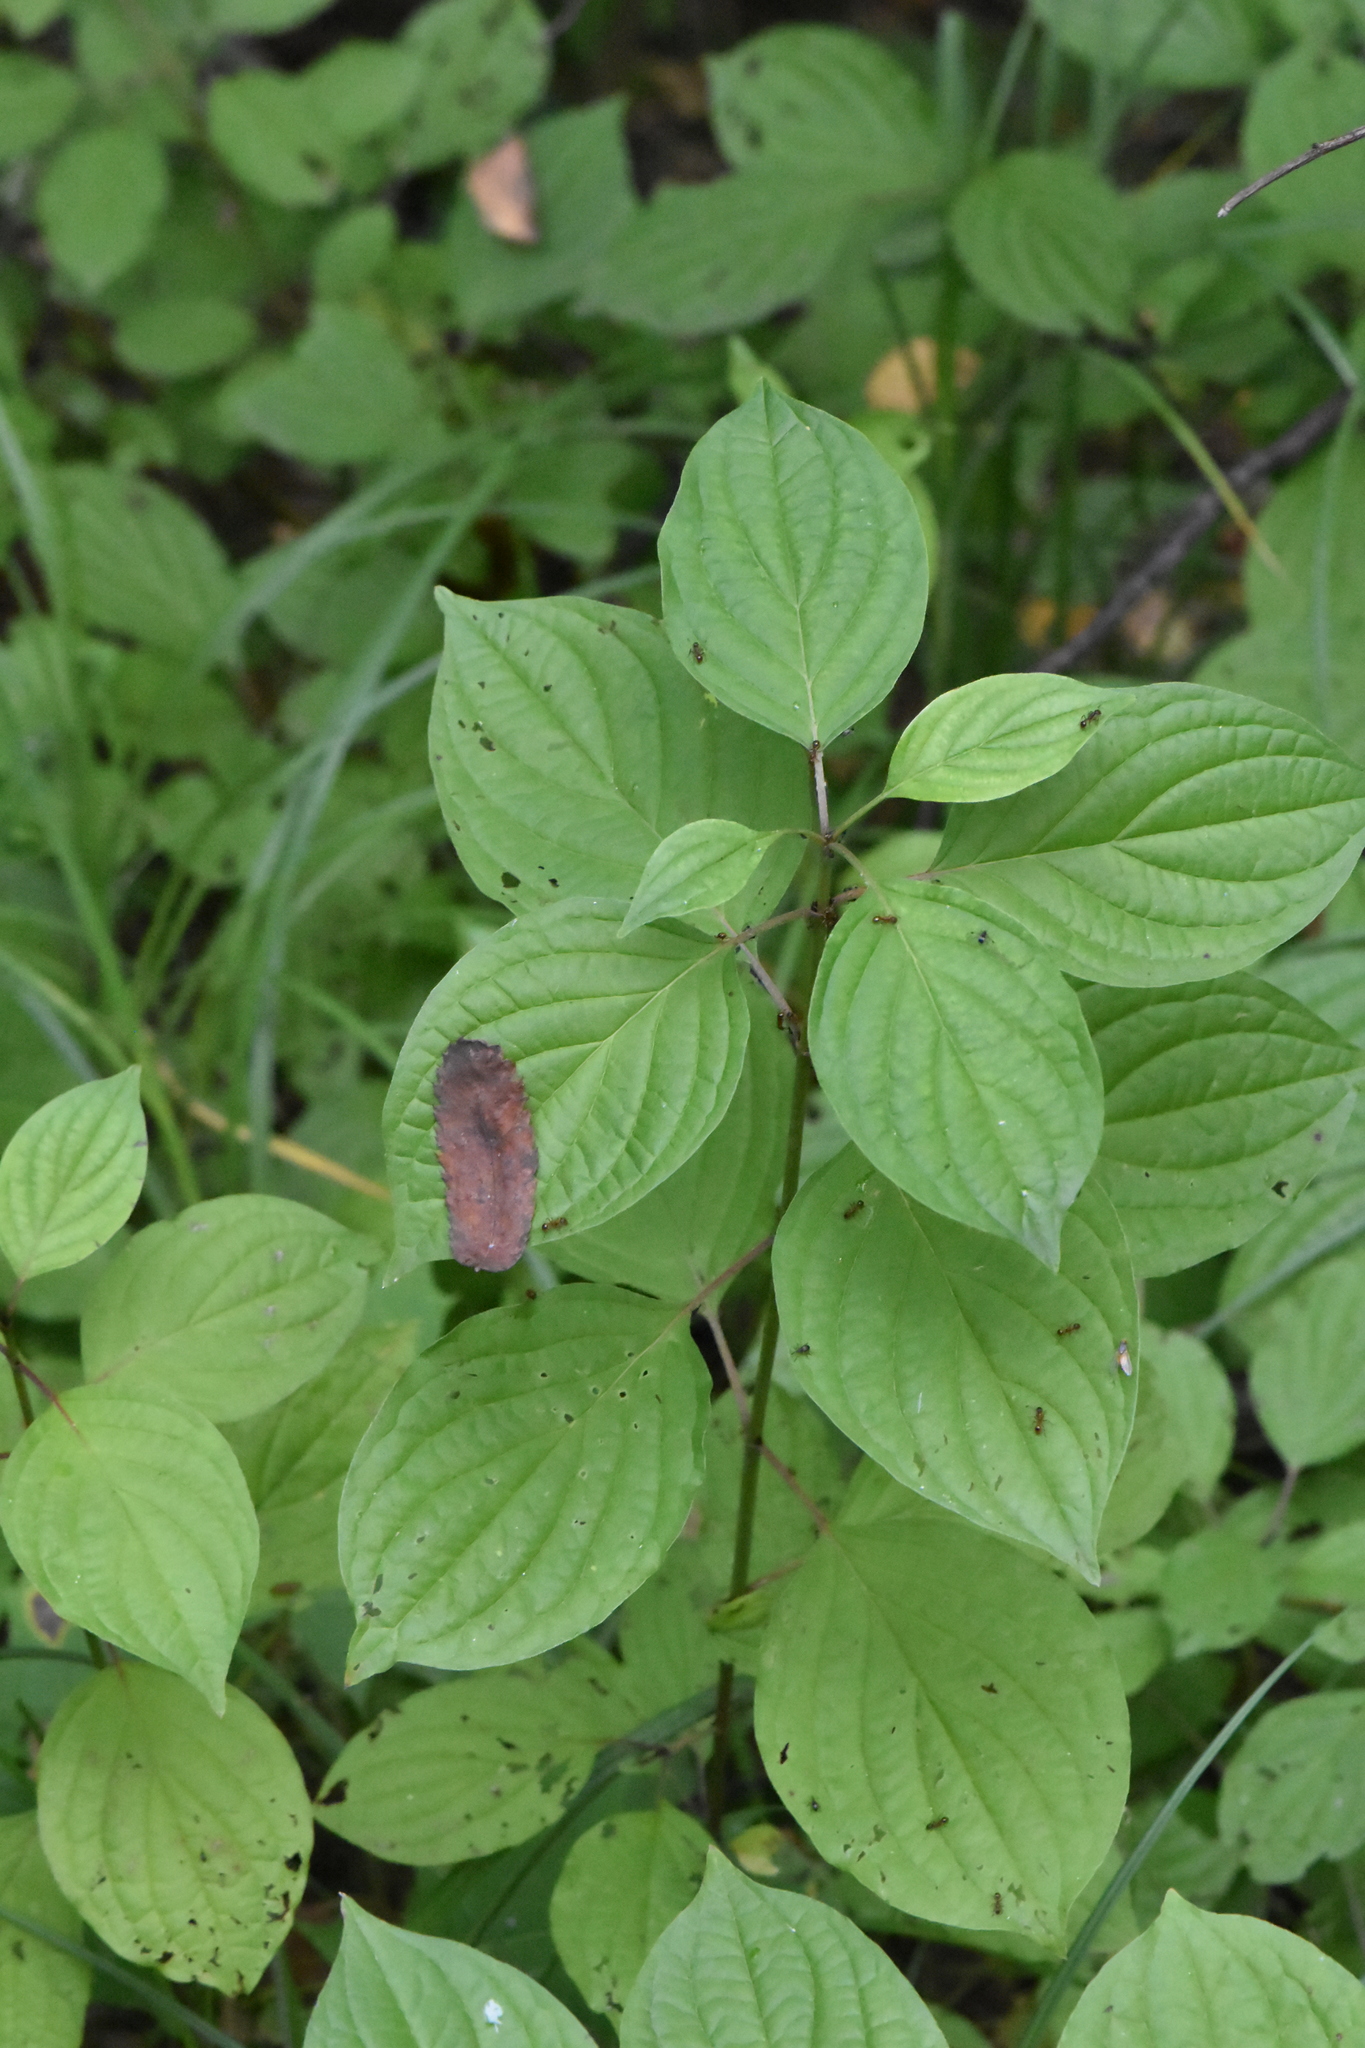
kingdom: Plantae
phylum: Tracheophyta
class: Magnoliopsida
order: Cornales
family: Cornaceae
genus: Cornus
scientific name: Cornus sanguinea
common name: Dogwood
